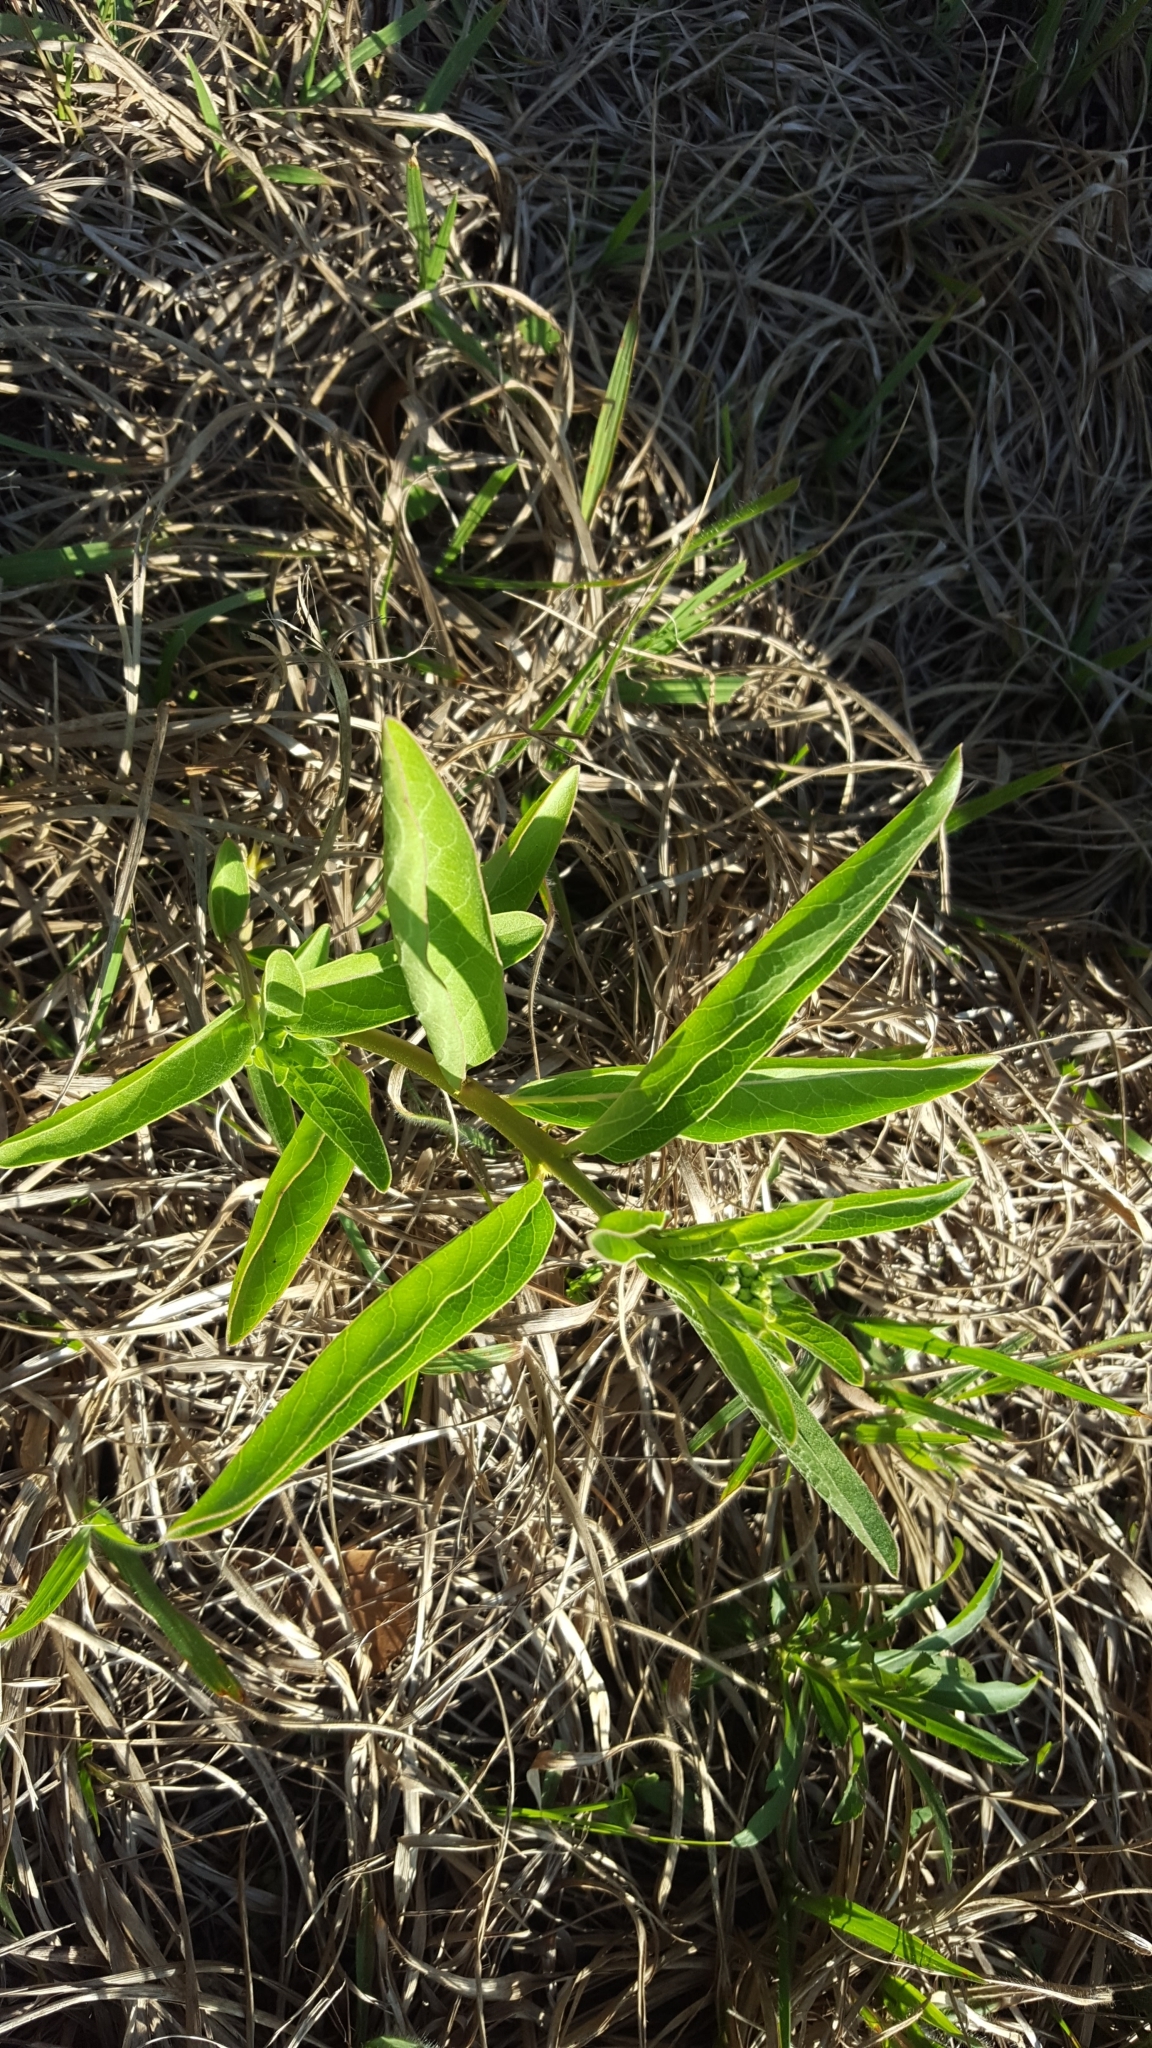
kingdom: Plantae
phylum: Tracheophyta
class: Magnoliopsida
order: Gentianales
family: Apocynaceae
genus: Asclepias
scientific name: Asclepias viridis
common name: Antelope-horns
